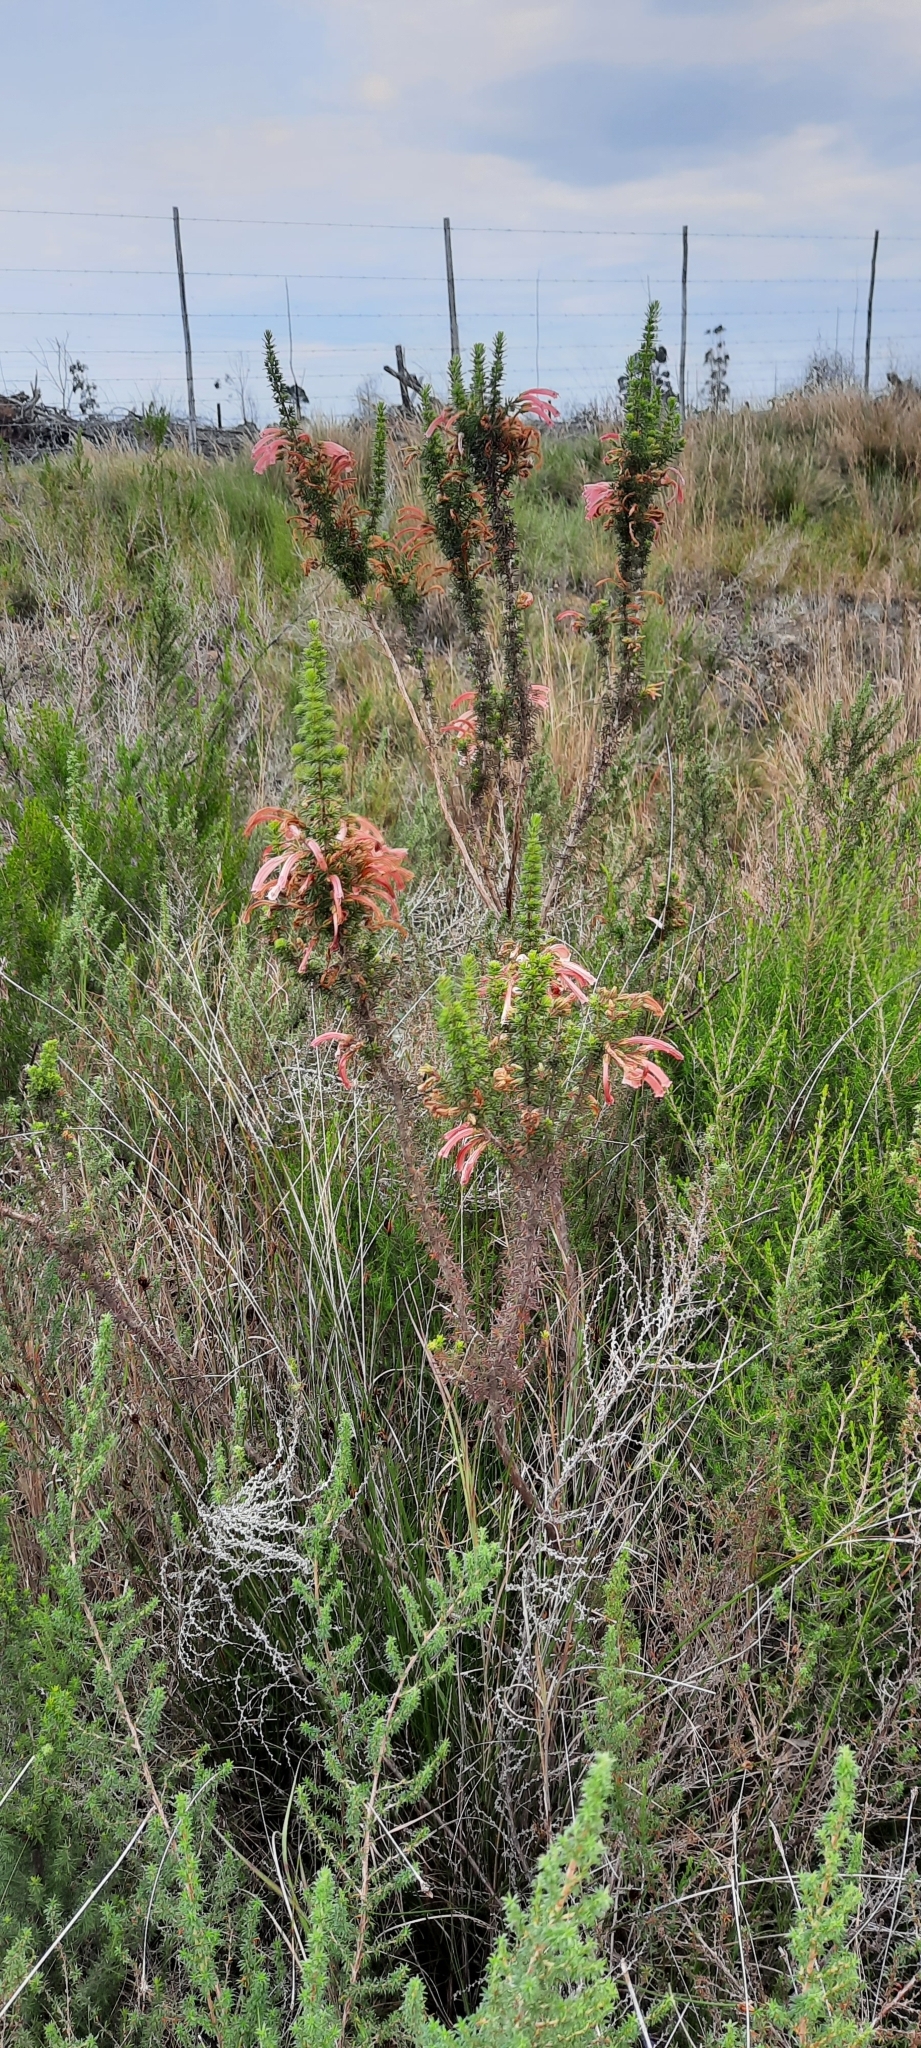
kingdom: Plantae
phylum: Tracheophyta
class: Magnoliopsida
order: Ericales
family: Ericaceae
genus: Erica
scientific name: Erica glandulosa
